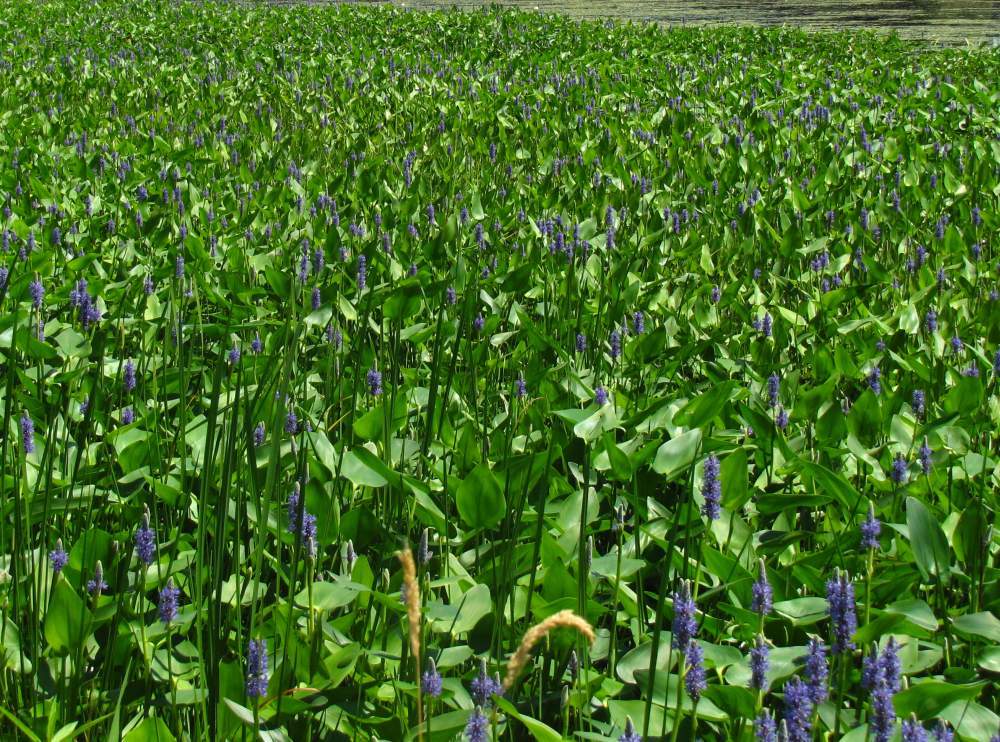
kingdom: Plantae
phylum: Tracheophyta
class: Liliopsida
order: Commelinales
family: Pontederiaceae
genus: Pontederia
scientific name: Pontederia cordata
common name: Pickerelweed
